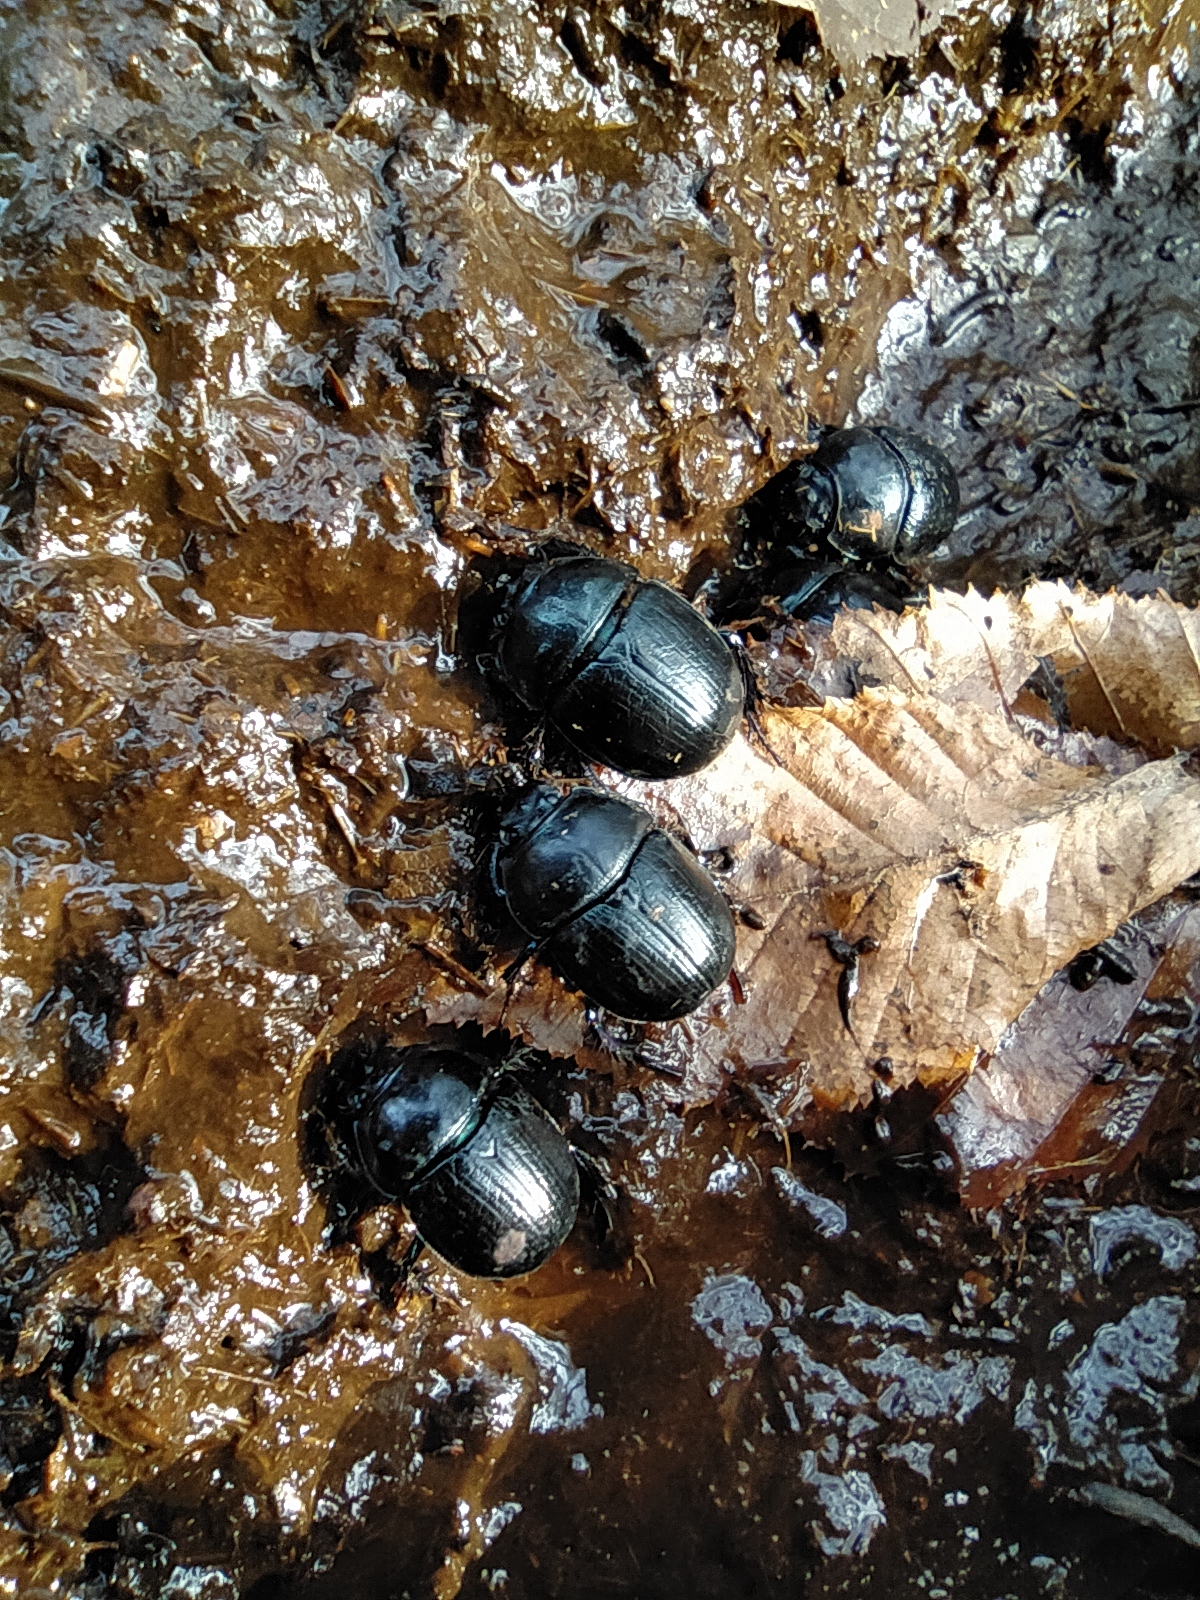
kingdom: Animalia
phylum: Arthropoda
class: Insecta
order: Coleoptera
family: Geotrupidae
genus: Anoplotrupes
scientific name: Anoplotrupes stercorosus
